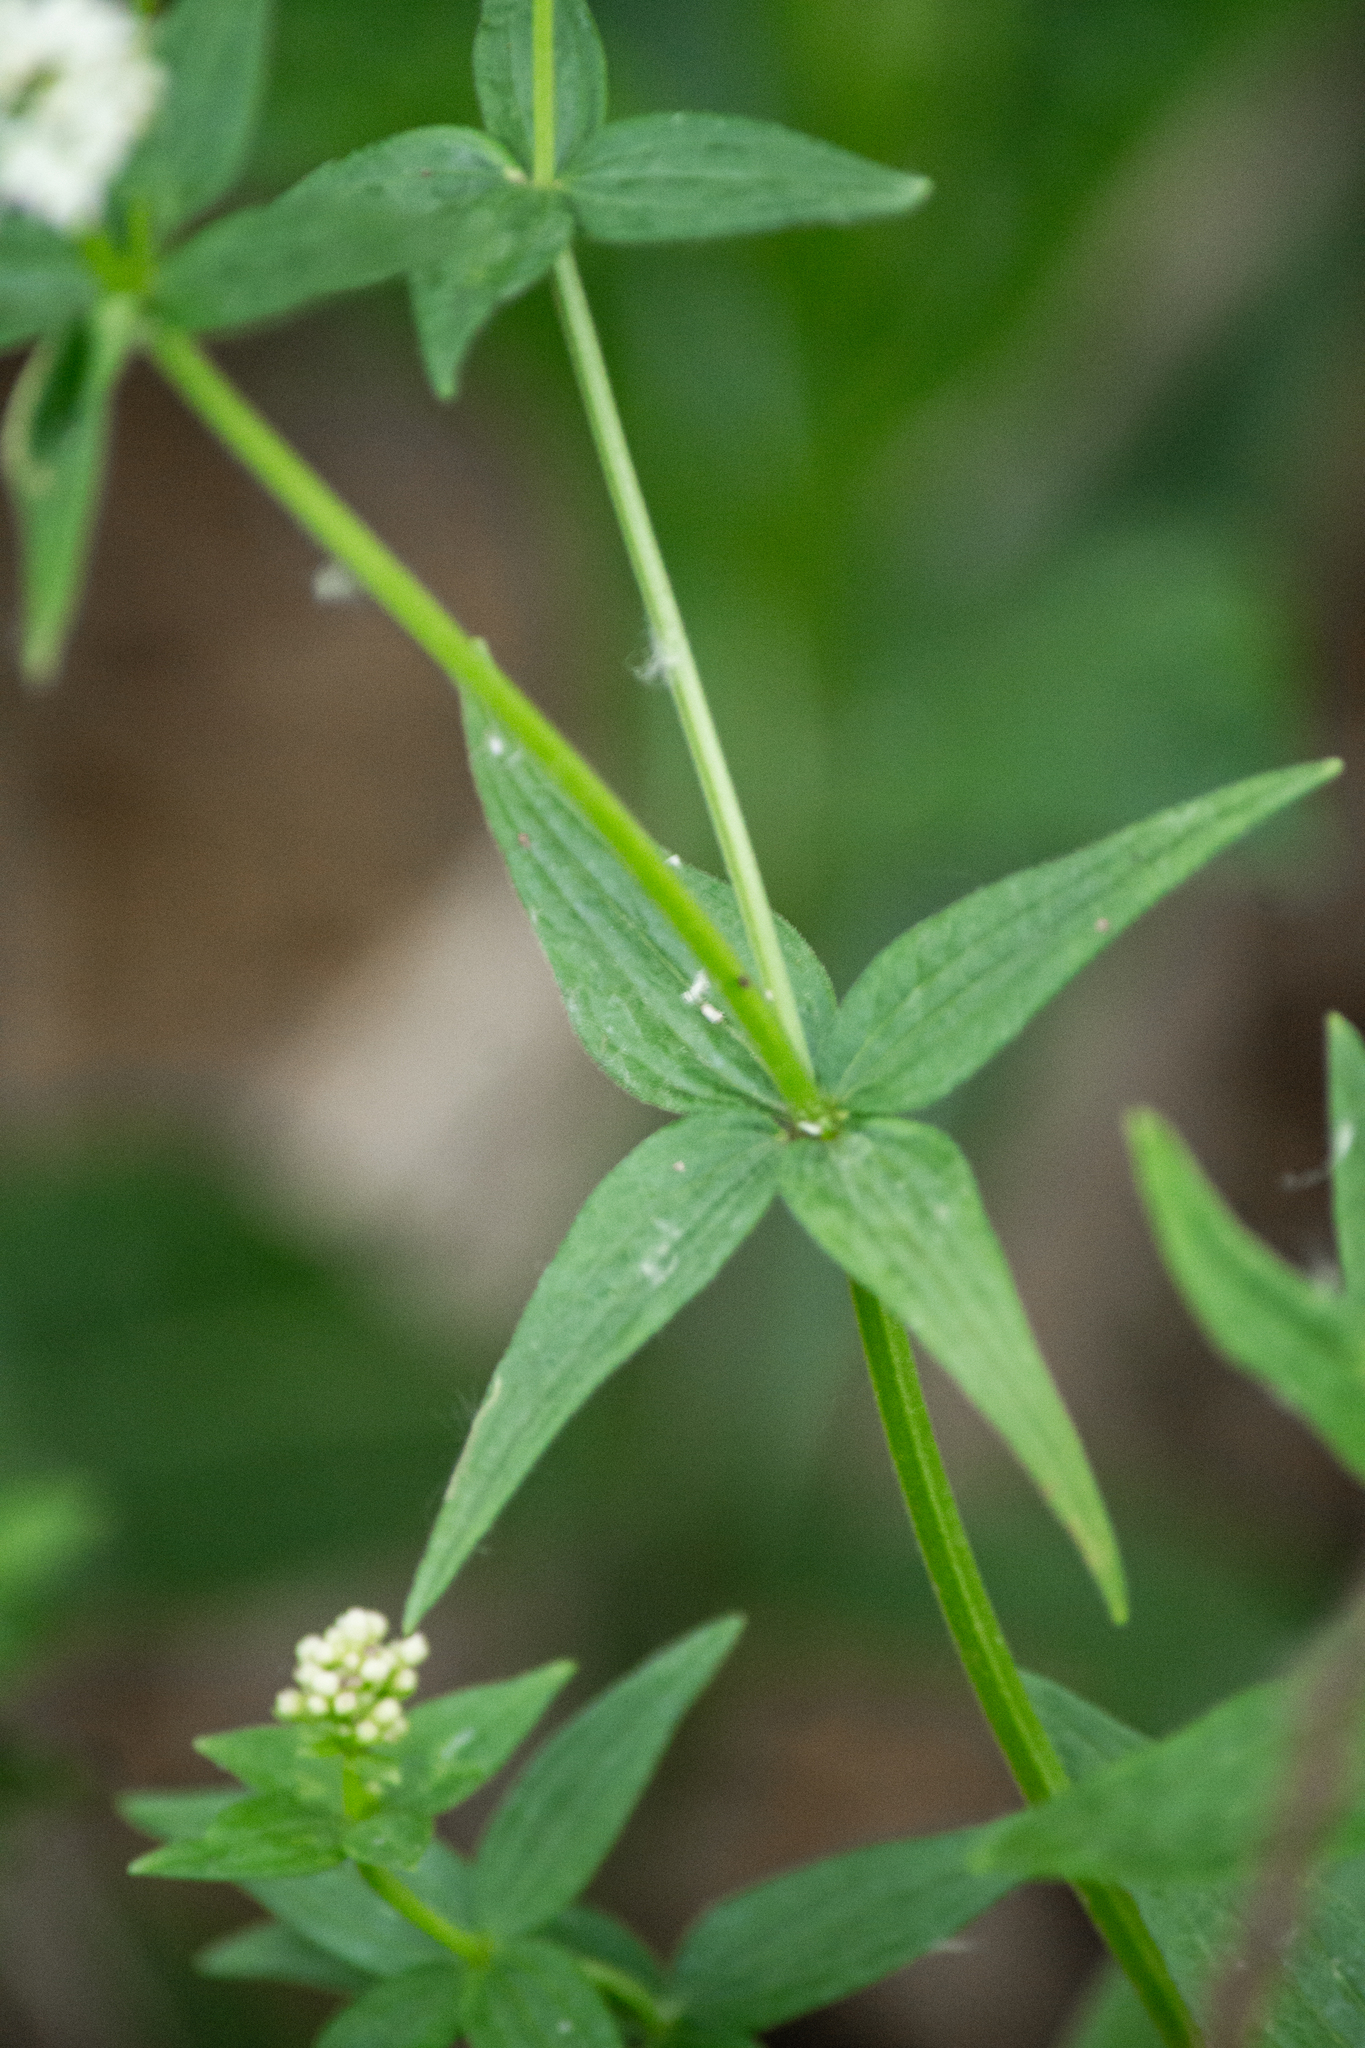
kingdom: Plantae
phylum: Tracheophyta
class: Magnoliopsida
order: Gentianales
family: Rubiaceae
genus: Galium
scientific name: Galium rubioides
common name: European bedstraw
